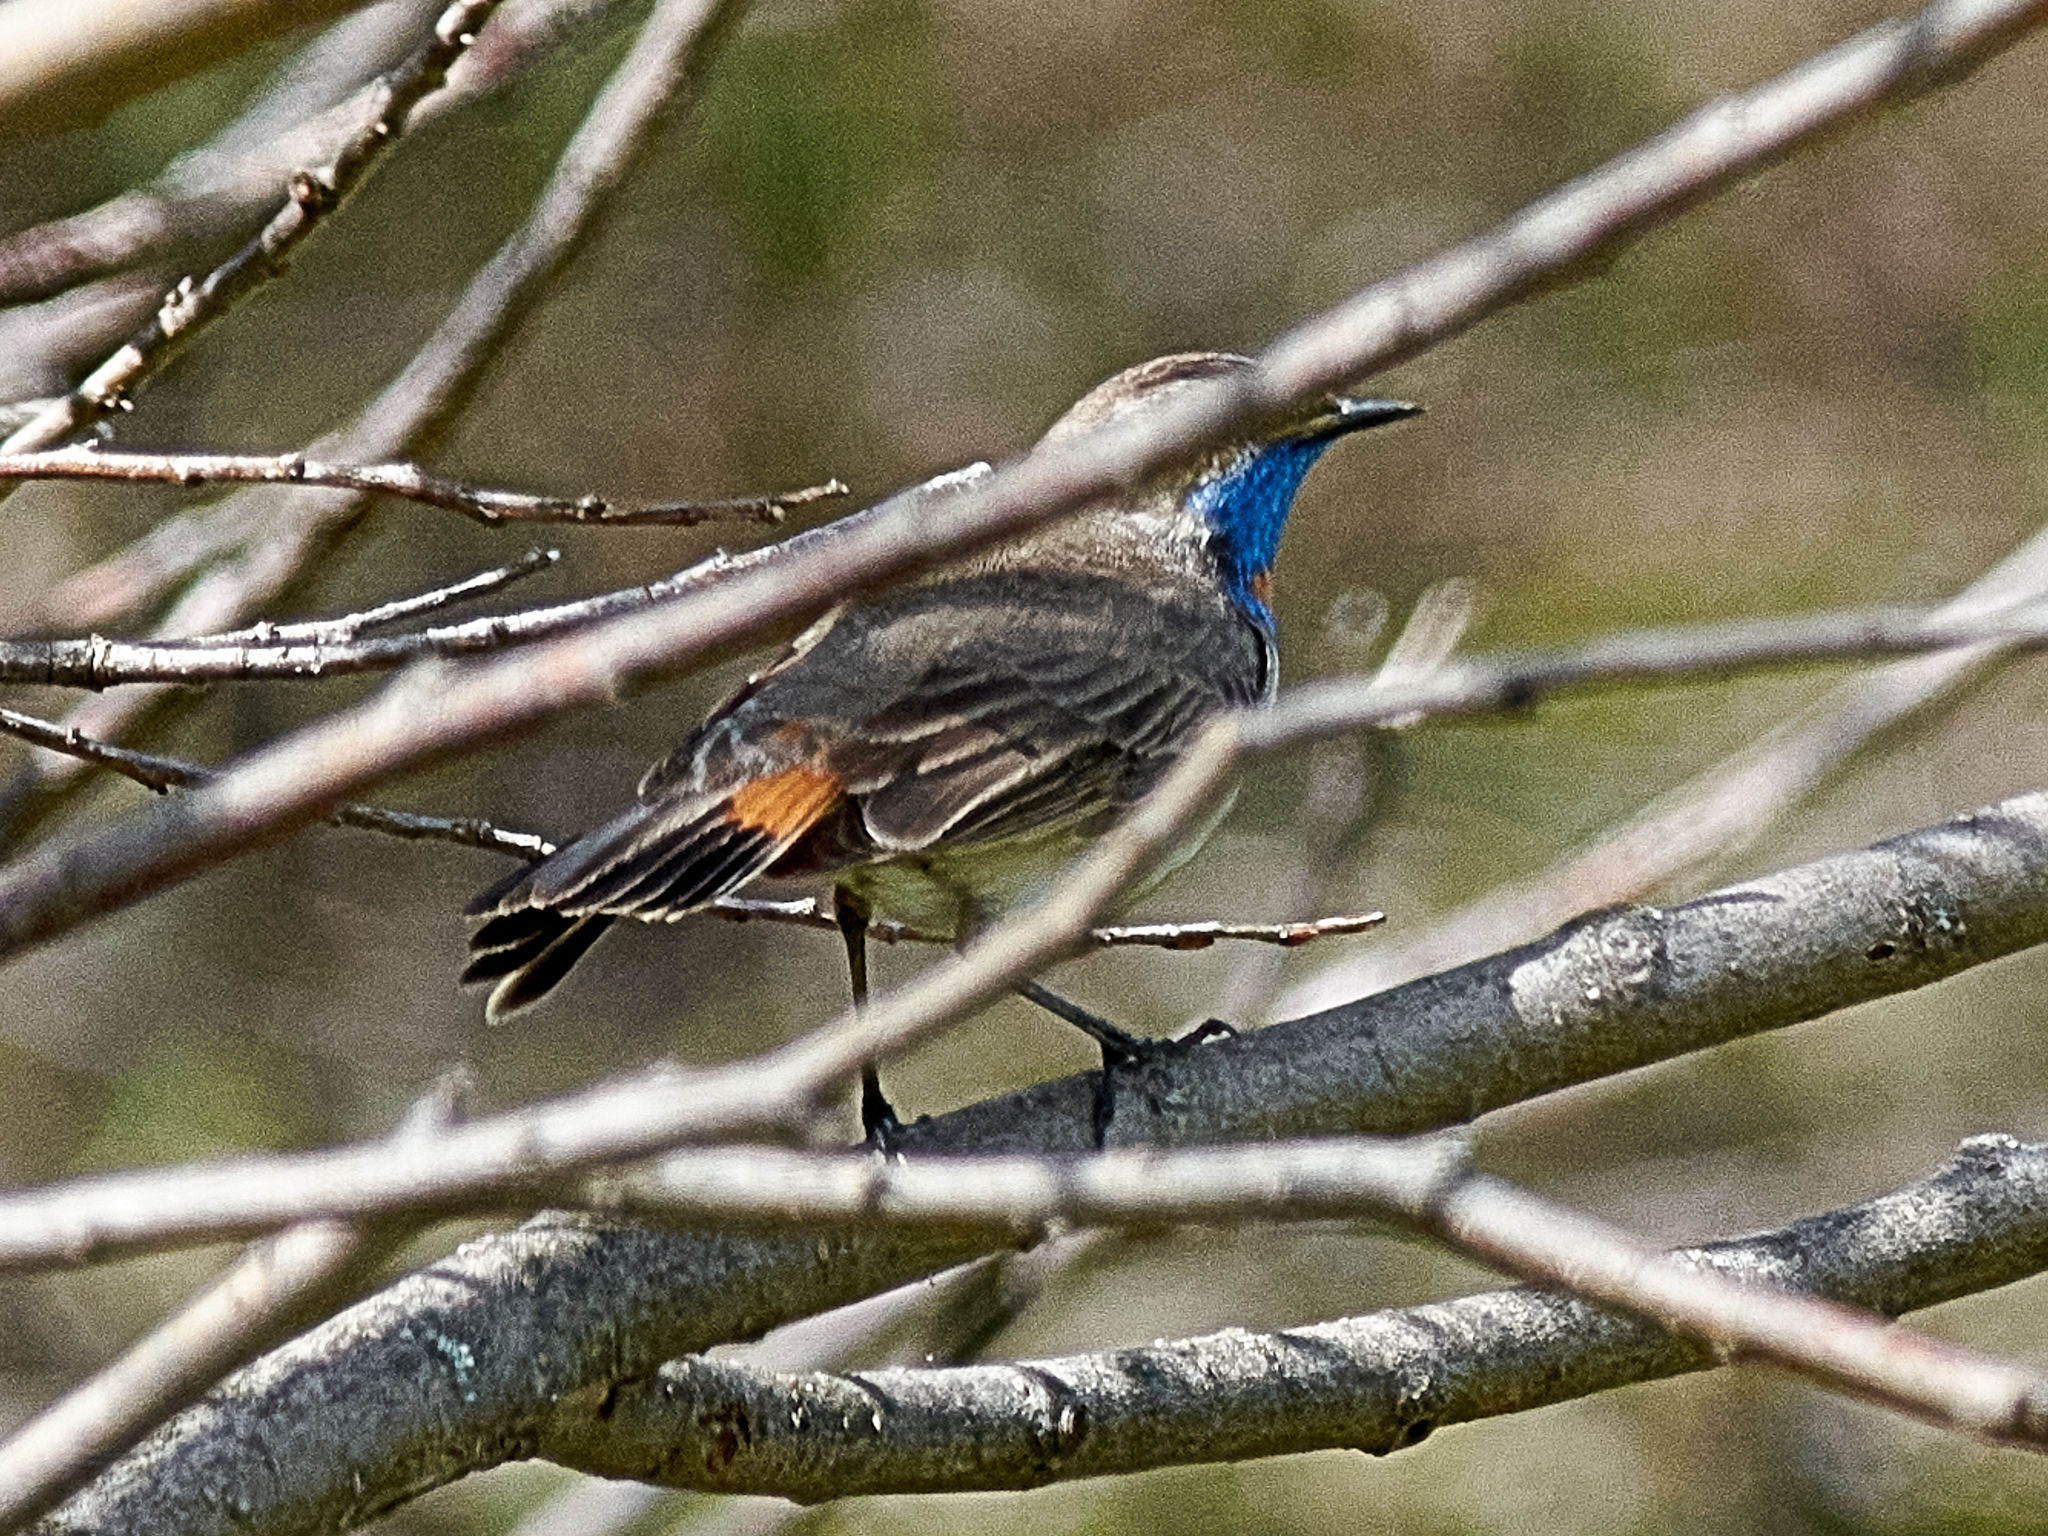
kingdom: Animalia
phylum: Chordata
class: Aves
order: Passeriformes
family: Muscicapidae
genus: Luscinia
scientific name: Luscinia svecica
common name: Bluethroat
